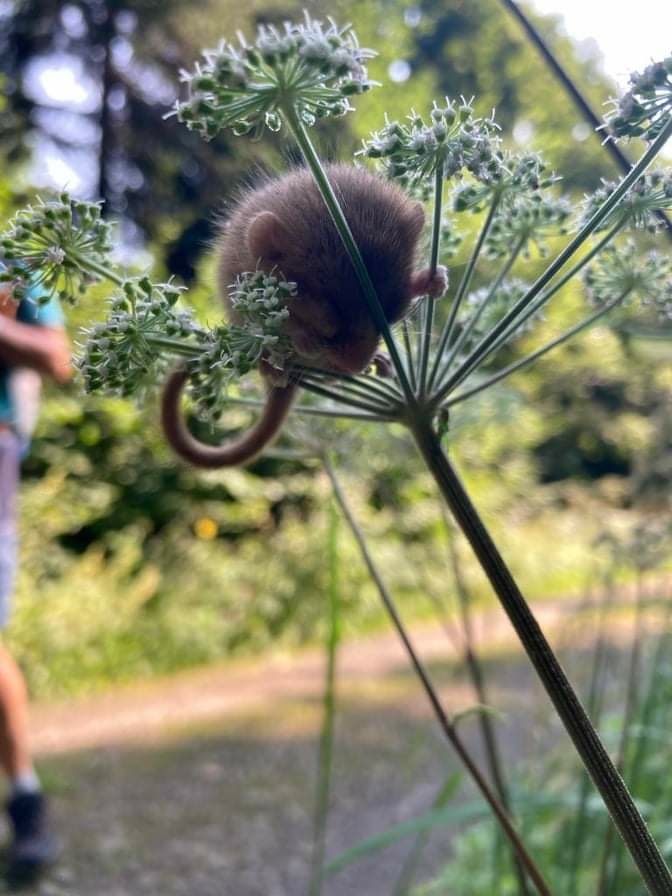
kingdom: Animalia
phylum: Chordata
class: Mammalia
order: Rodentia
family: Gliridae
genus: Muscardinus
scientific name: Muscardinus avellanarius
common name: Hazel dormouse
